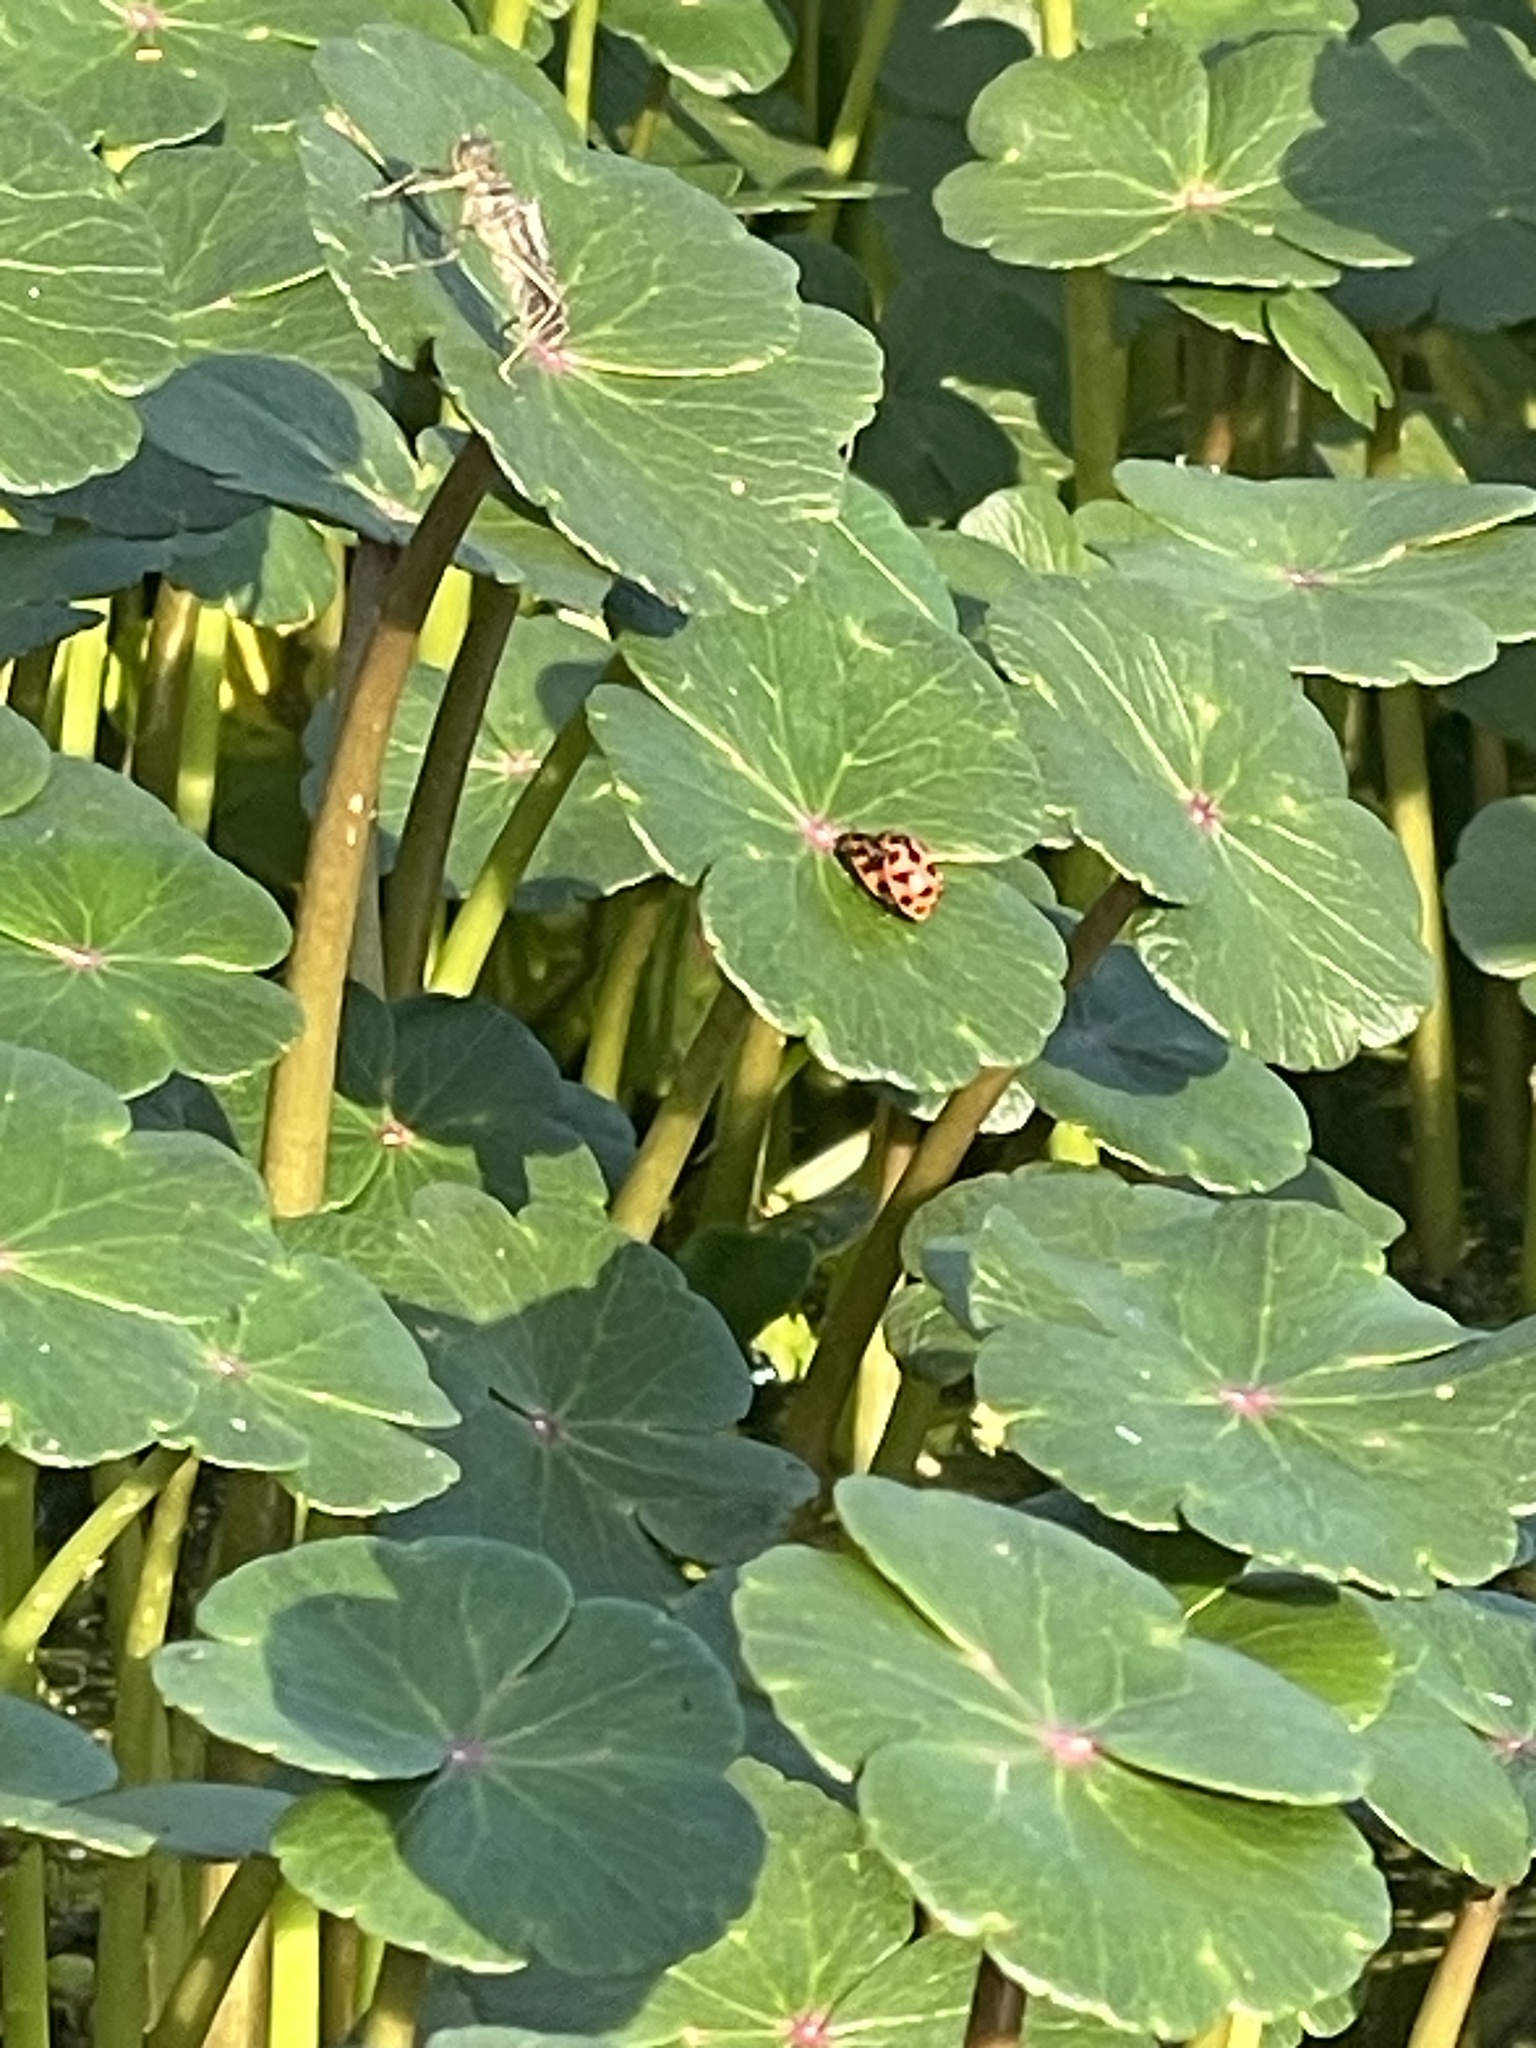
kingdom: Animalia
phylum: Arthropoda
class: Insecta
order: Coleoptera
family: Coccinellidae
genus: Coleomegilla
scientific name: Coleomegilla maculata
